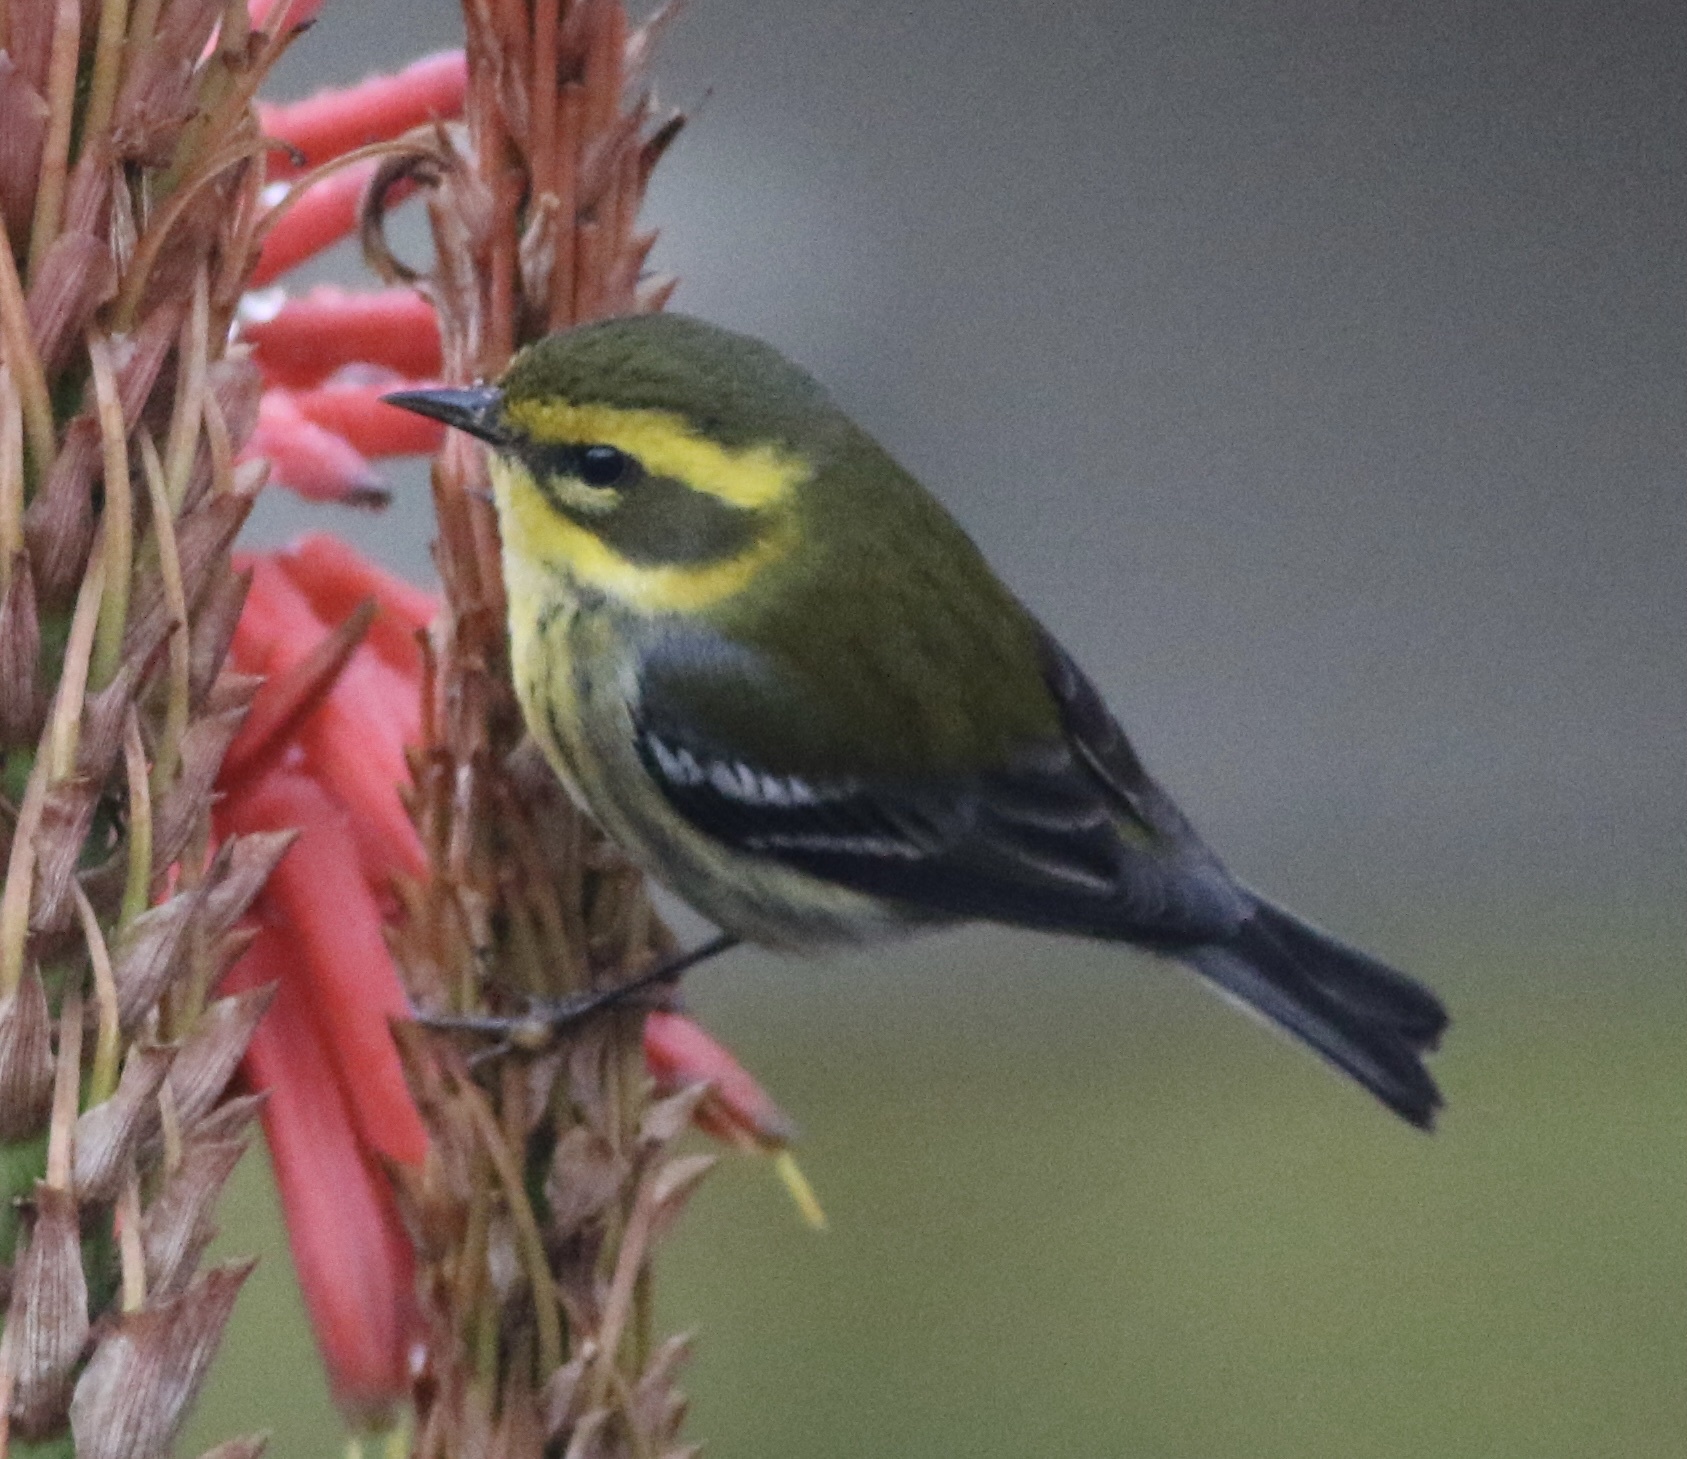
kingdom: Animalia
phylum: Chordata
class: Aves
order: Passeriformes
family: Parulidae
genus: Setophaga
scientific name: Setophaga townsendi
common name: Townsend's warbler
